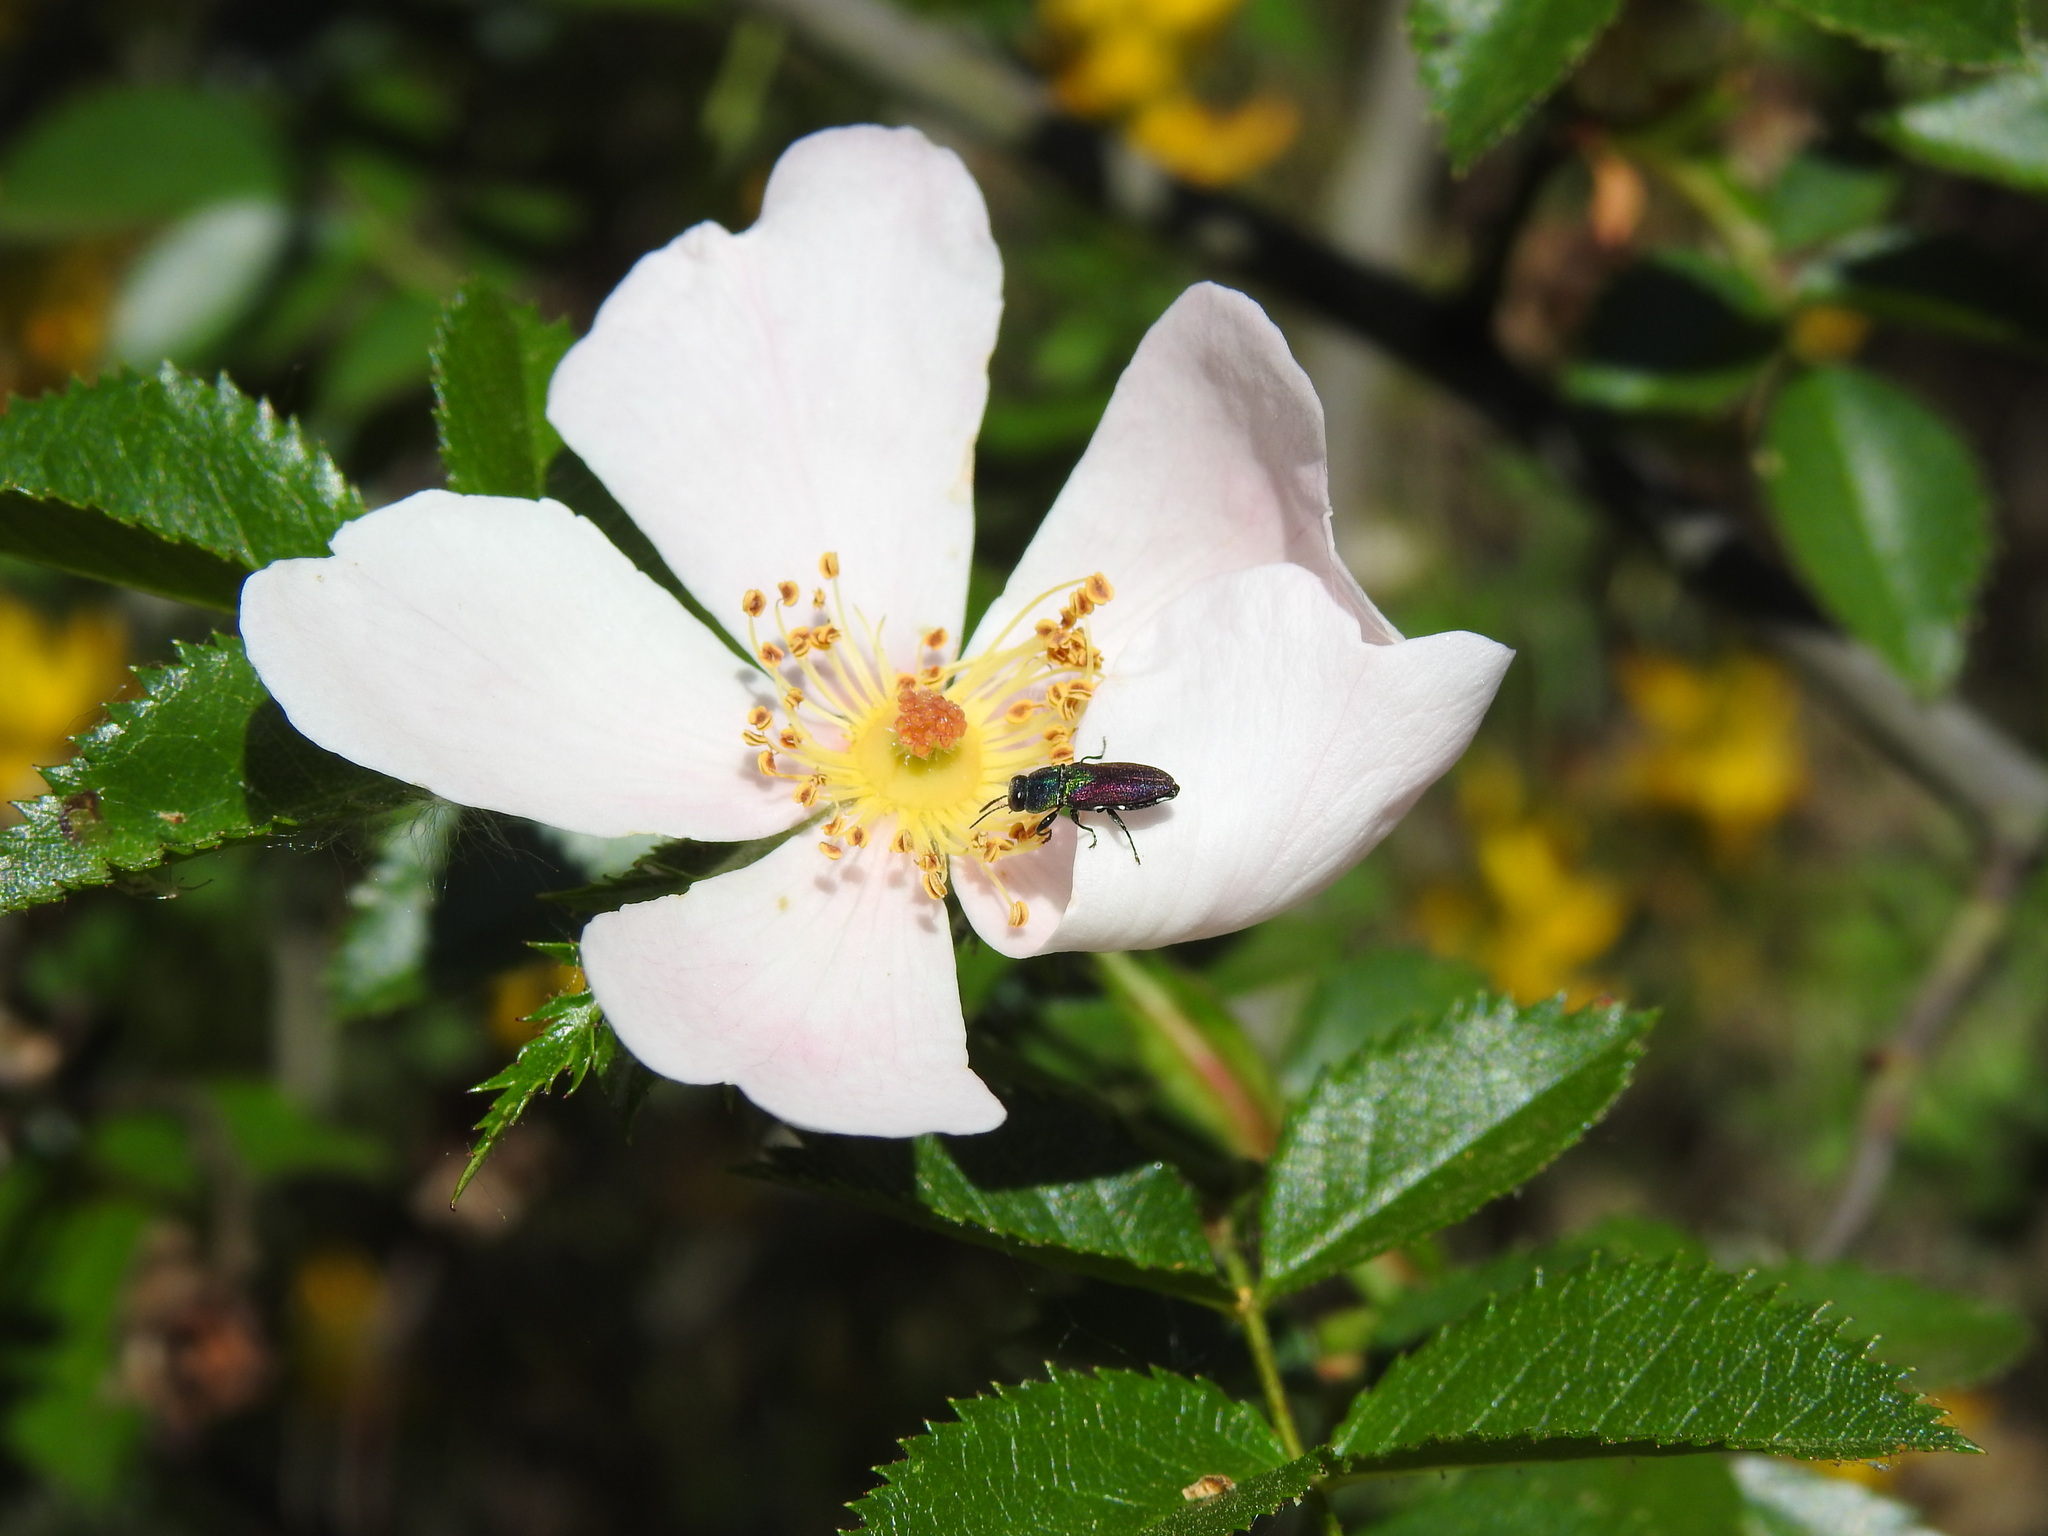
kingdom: Animalia
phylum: Arthropoda
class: Insecta
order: Coleoptera
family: Buprestidae
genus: Anthaxia
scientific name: Anthaxia salicis
